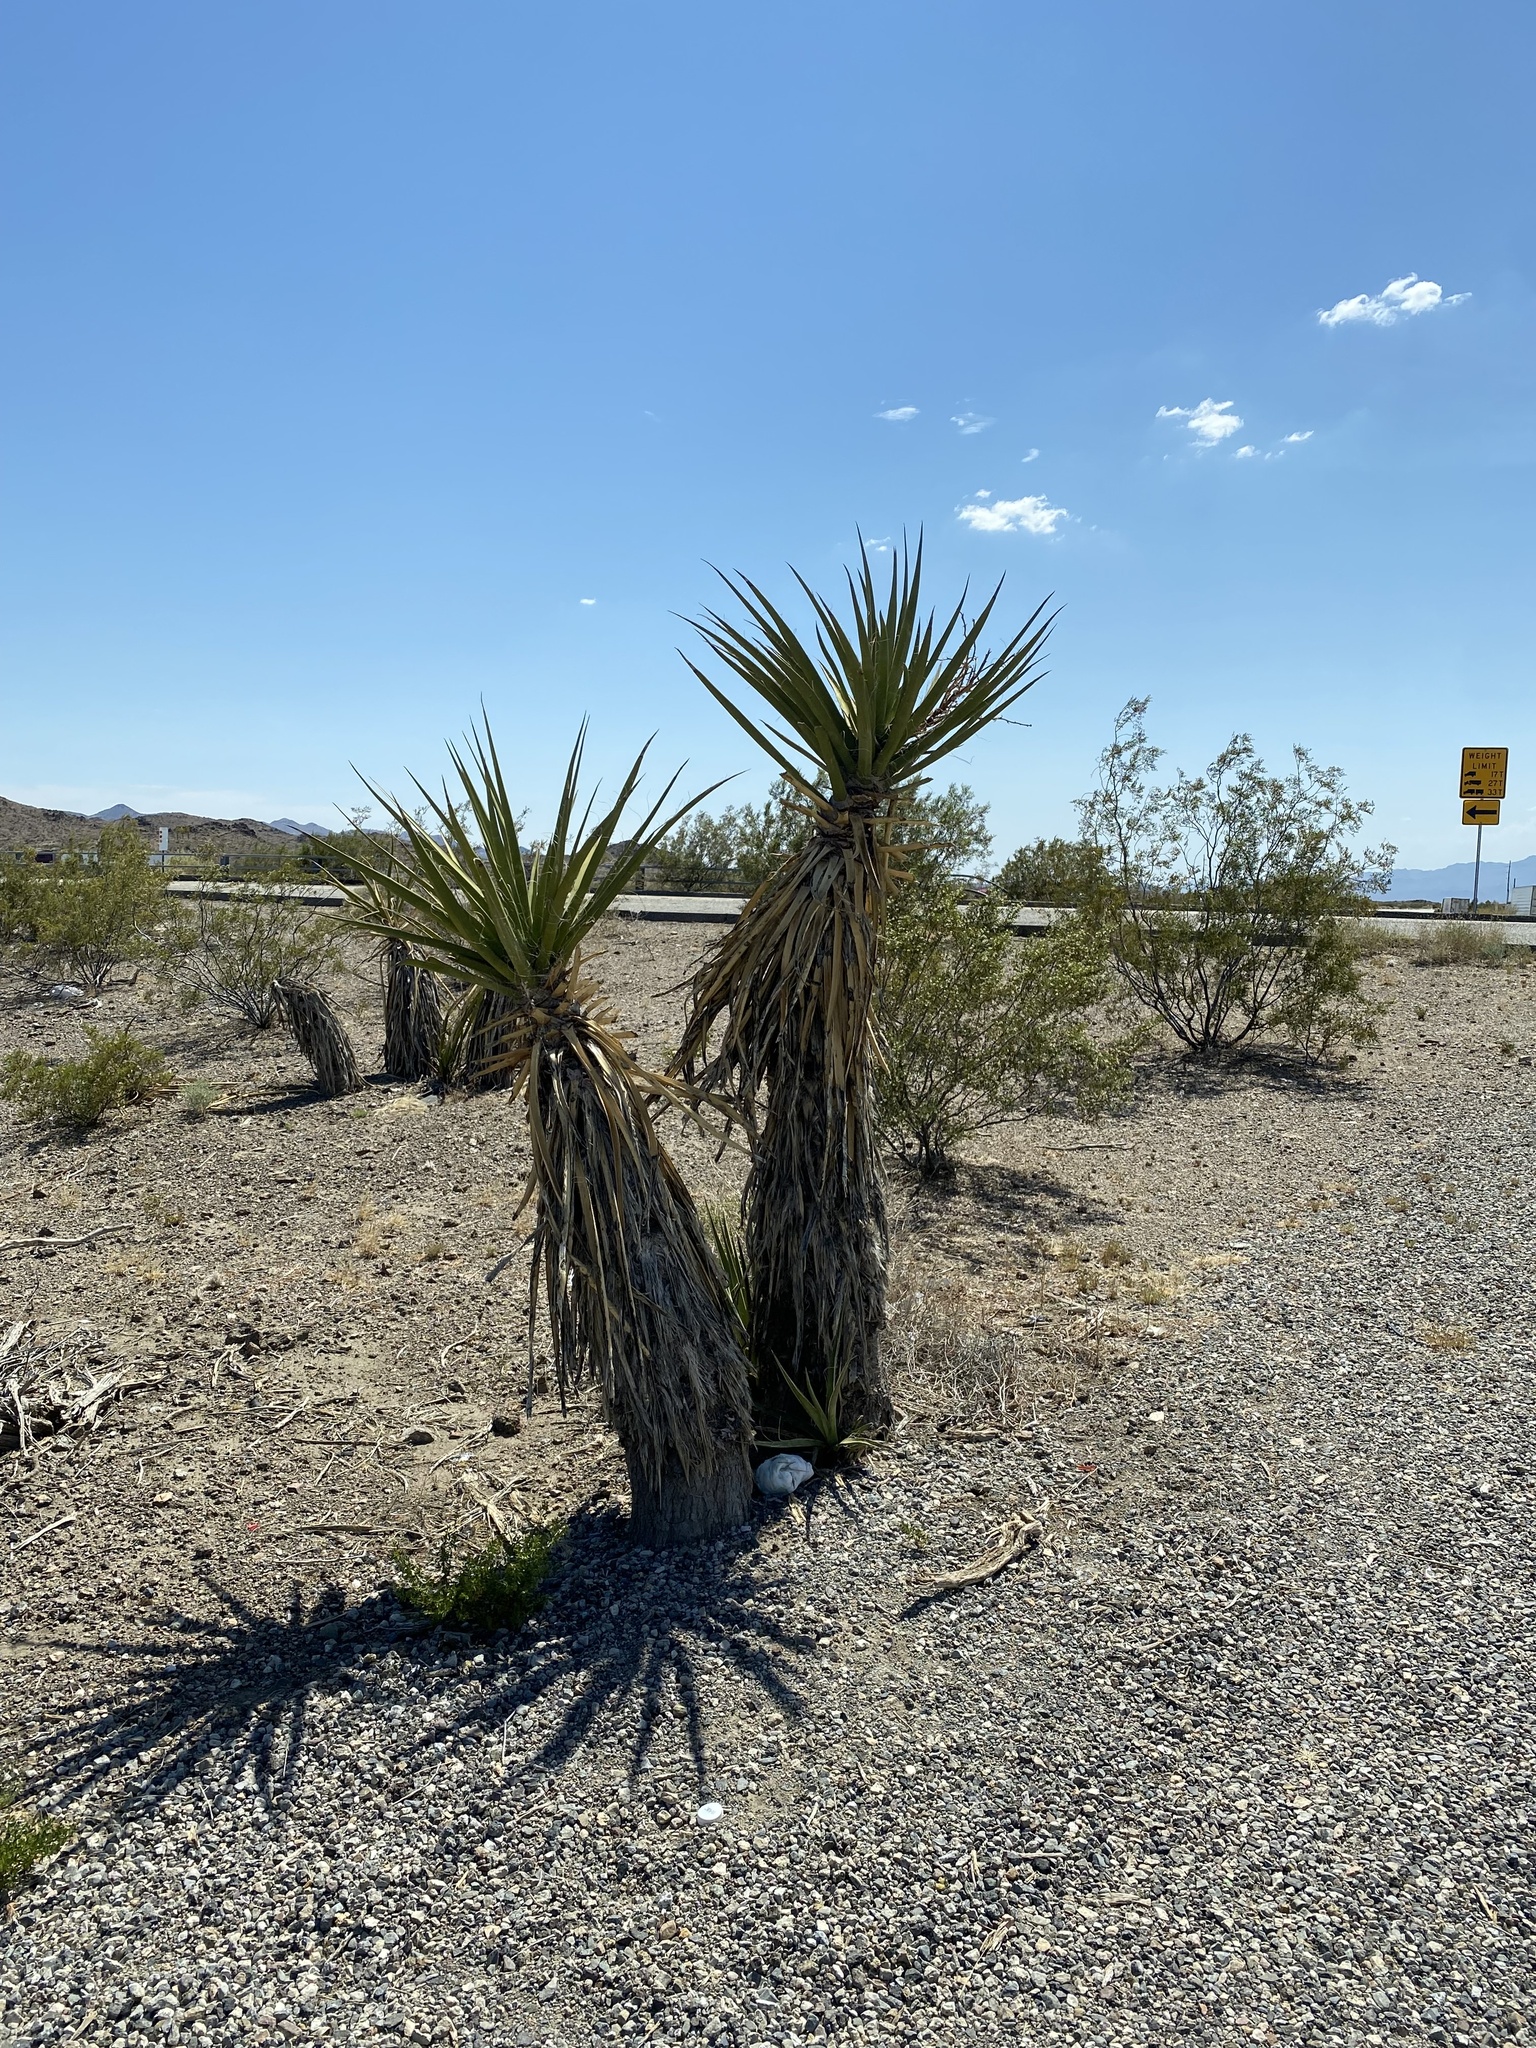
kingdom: Plantae
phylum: Tracheophyta
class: Liliopsida
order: Asparagales
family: Asparagaceae
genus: Yucca
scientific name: Yucca schidigera
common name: Mojave yucca
